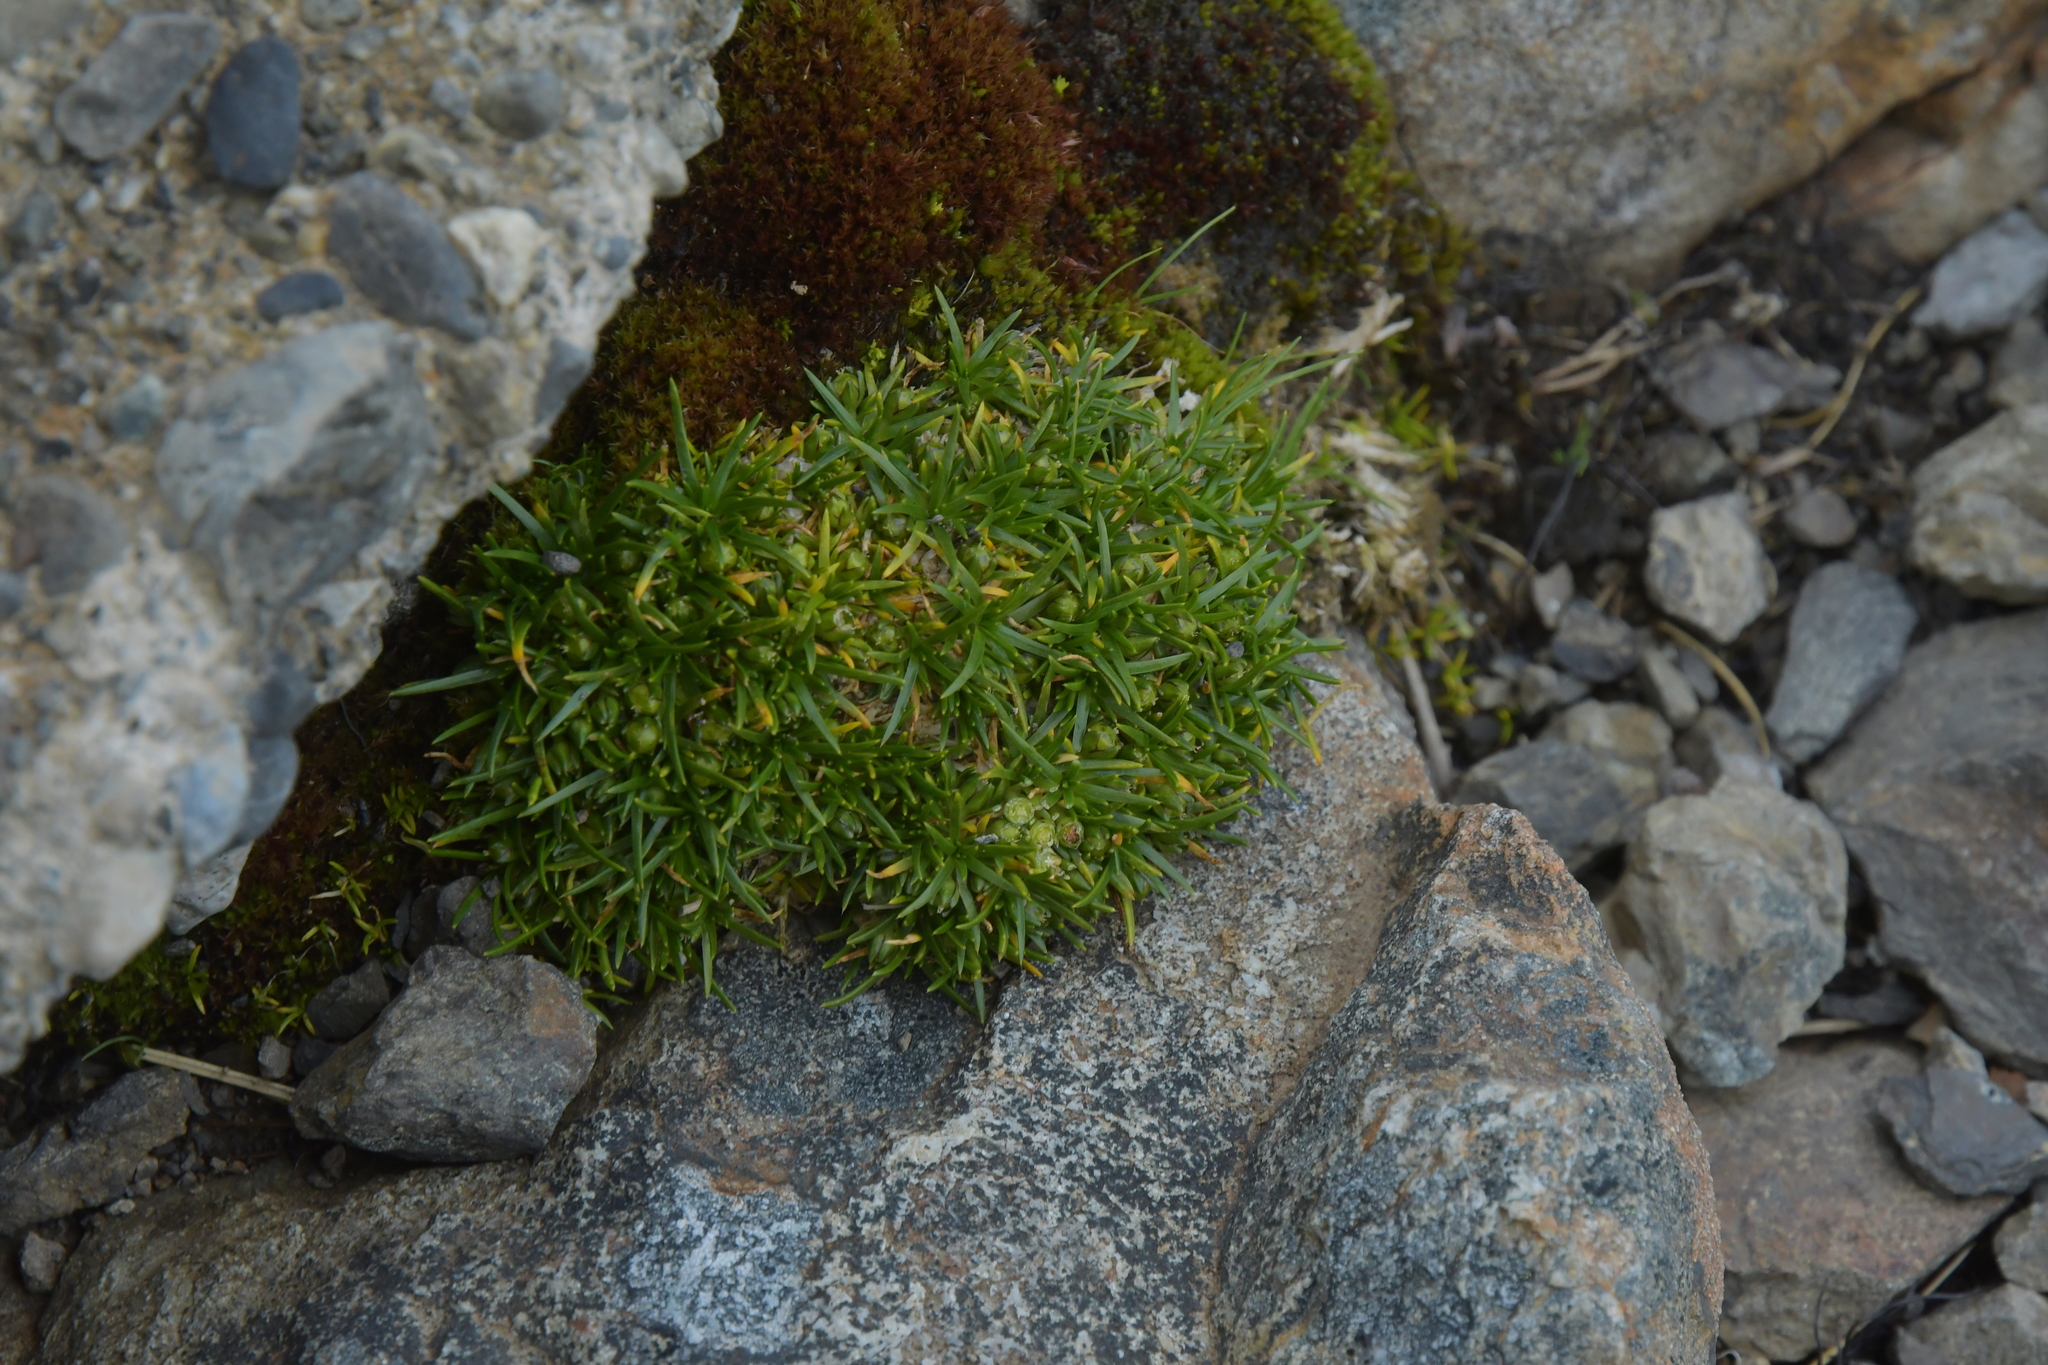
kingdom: Plantae
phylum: Tracheophyta
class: Magnoliopsida
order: Caryophyllales
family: Caryophyllaceae
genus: Colobanthus
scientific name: Colobanthus affinis
